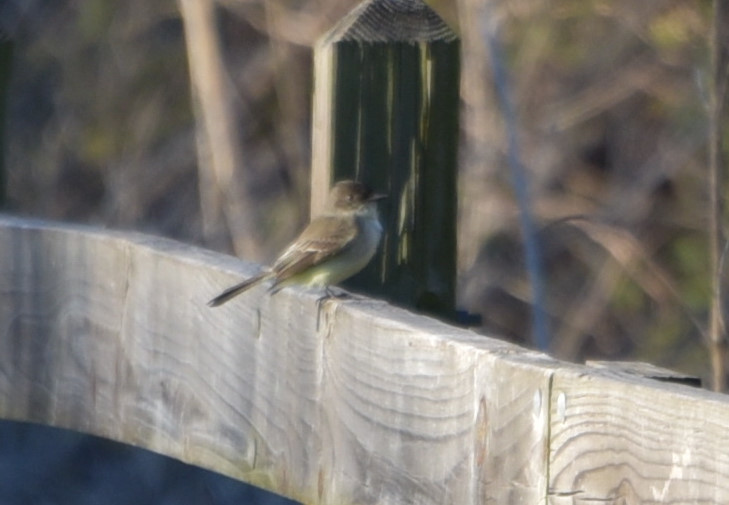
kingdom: Animalia
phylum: Chordata
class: Aves
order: Passeriformes
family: Tyrannidae
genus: Sayornis
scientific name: Sayornis phoebe
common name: Eastern phoebe
